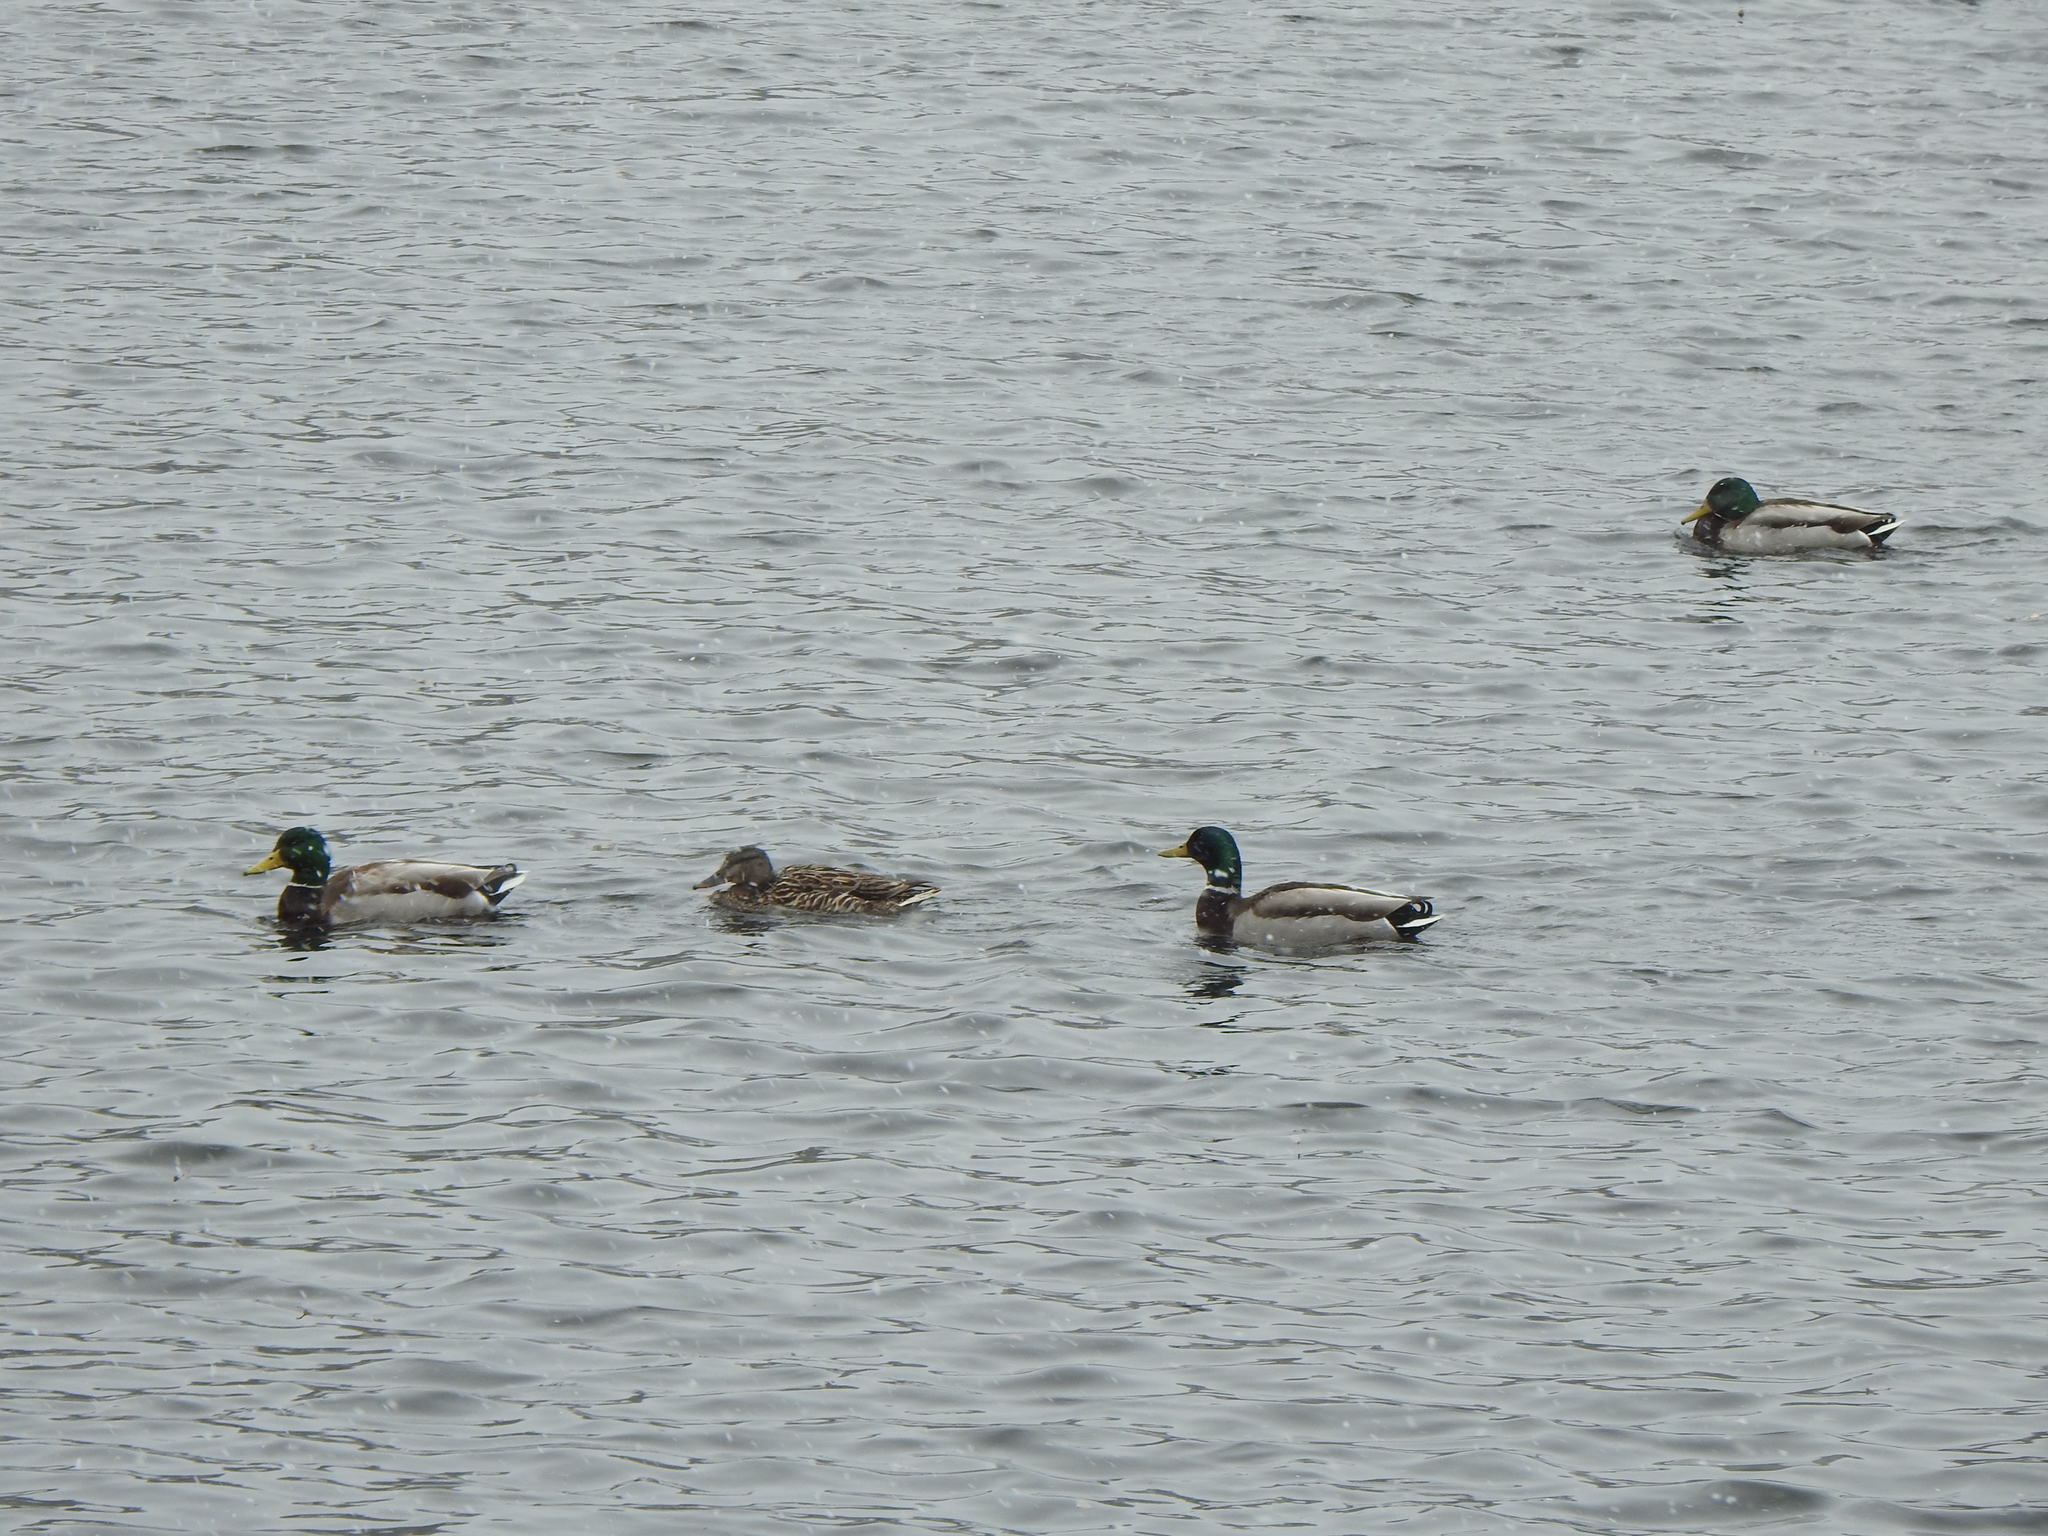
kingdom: Animalia
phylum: Chordata
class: Aves
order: Anseriformes
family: Anatidae
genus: Anas
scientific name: Anas platyrhynchos
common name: Mallard
